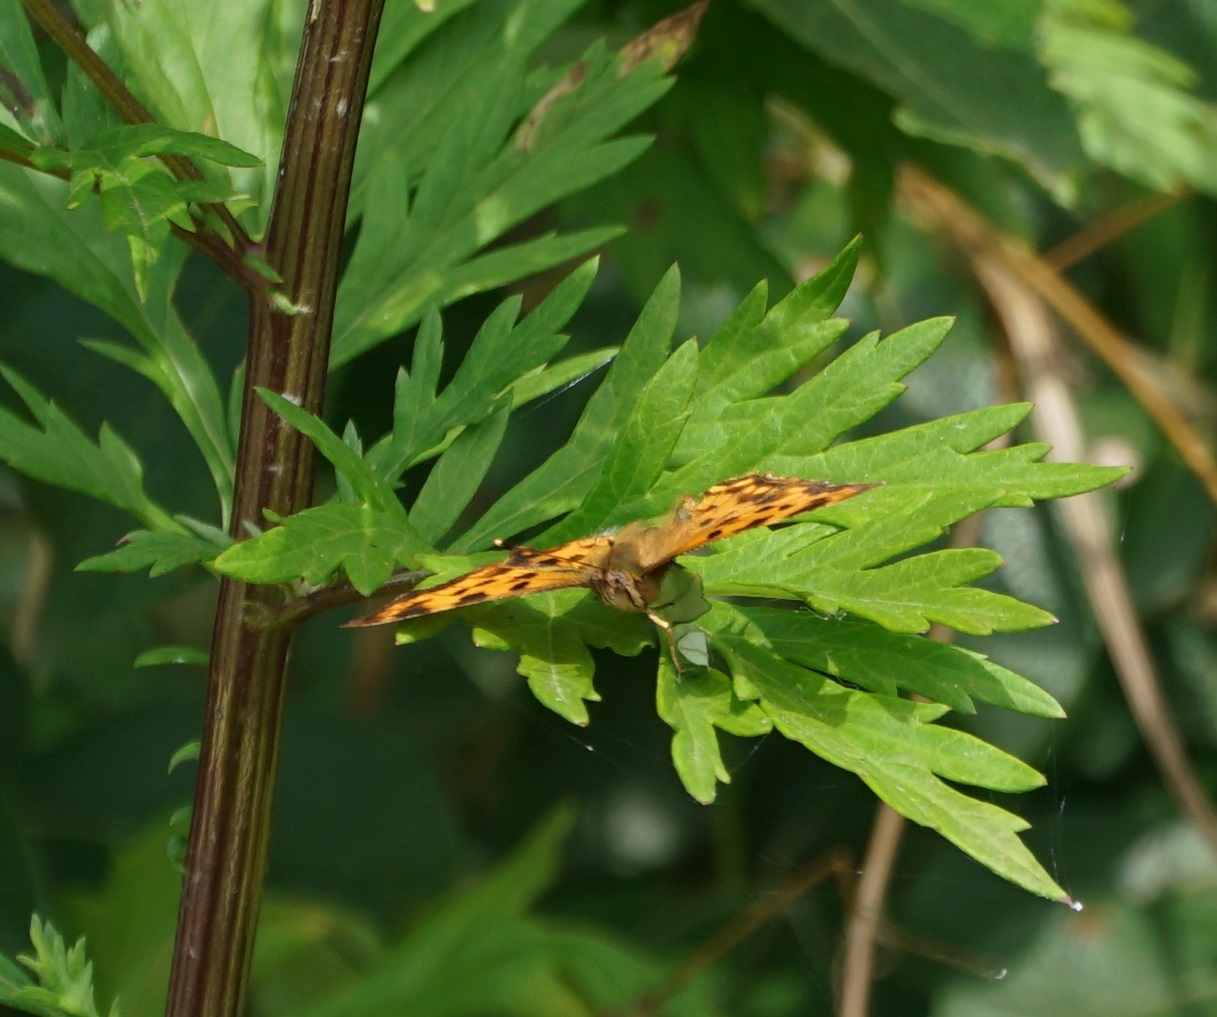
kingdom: Animalia
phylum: Arthropoda
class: Insecta
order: Lepidoptera
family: Nymphalidae
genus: Polygonia
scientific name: Polygonia c-album
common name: Comma
